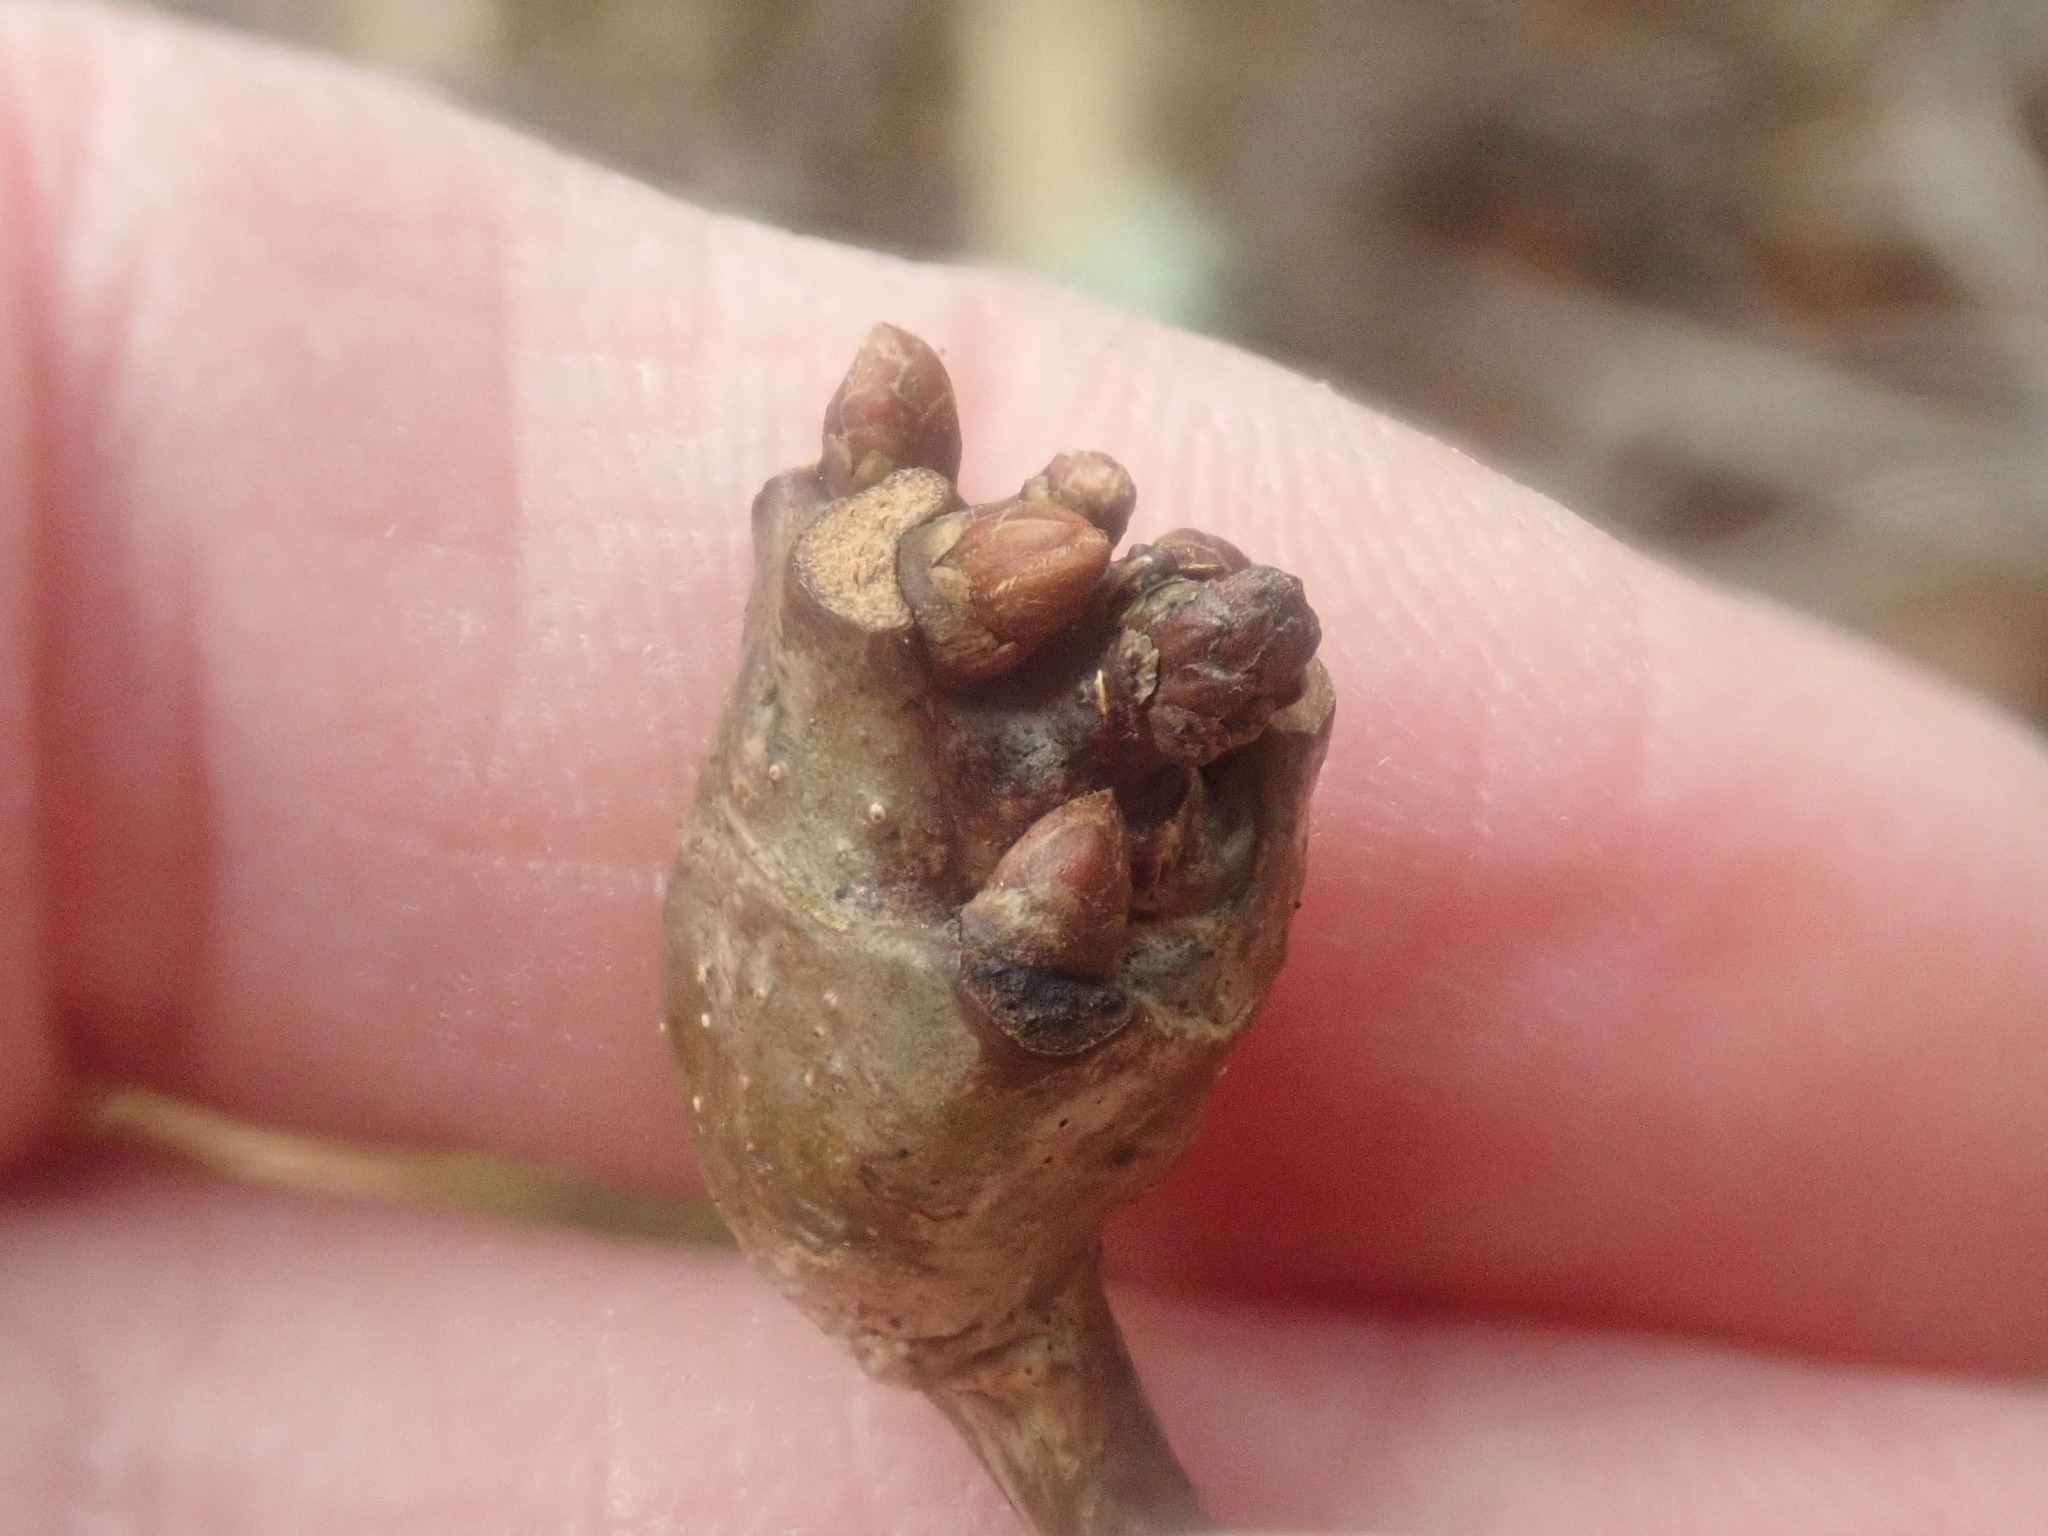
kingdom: Animalia
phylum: Arthropoda
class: Insecta
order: Hymenoptera
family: Cynipidae
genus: Callirhytis
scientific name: Callirhytis clavula
